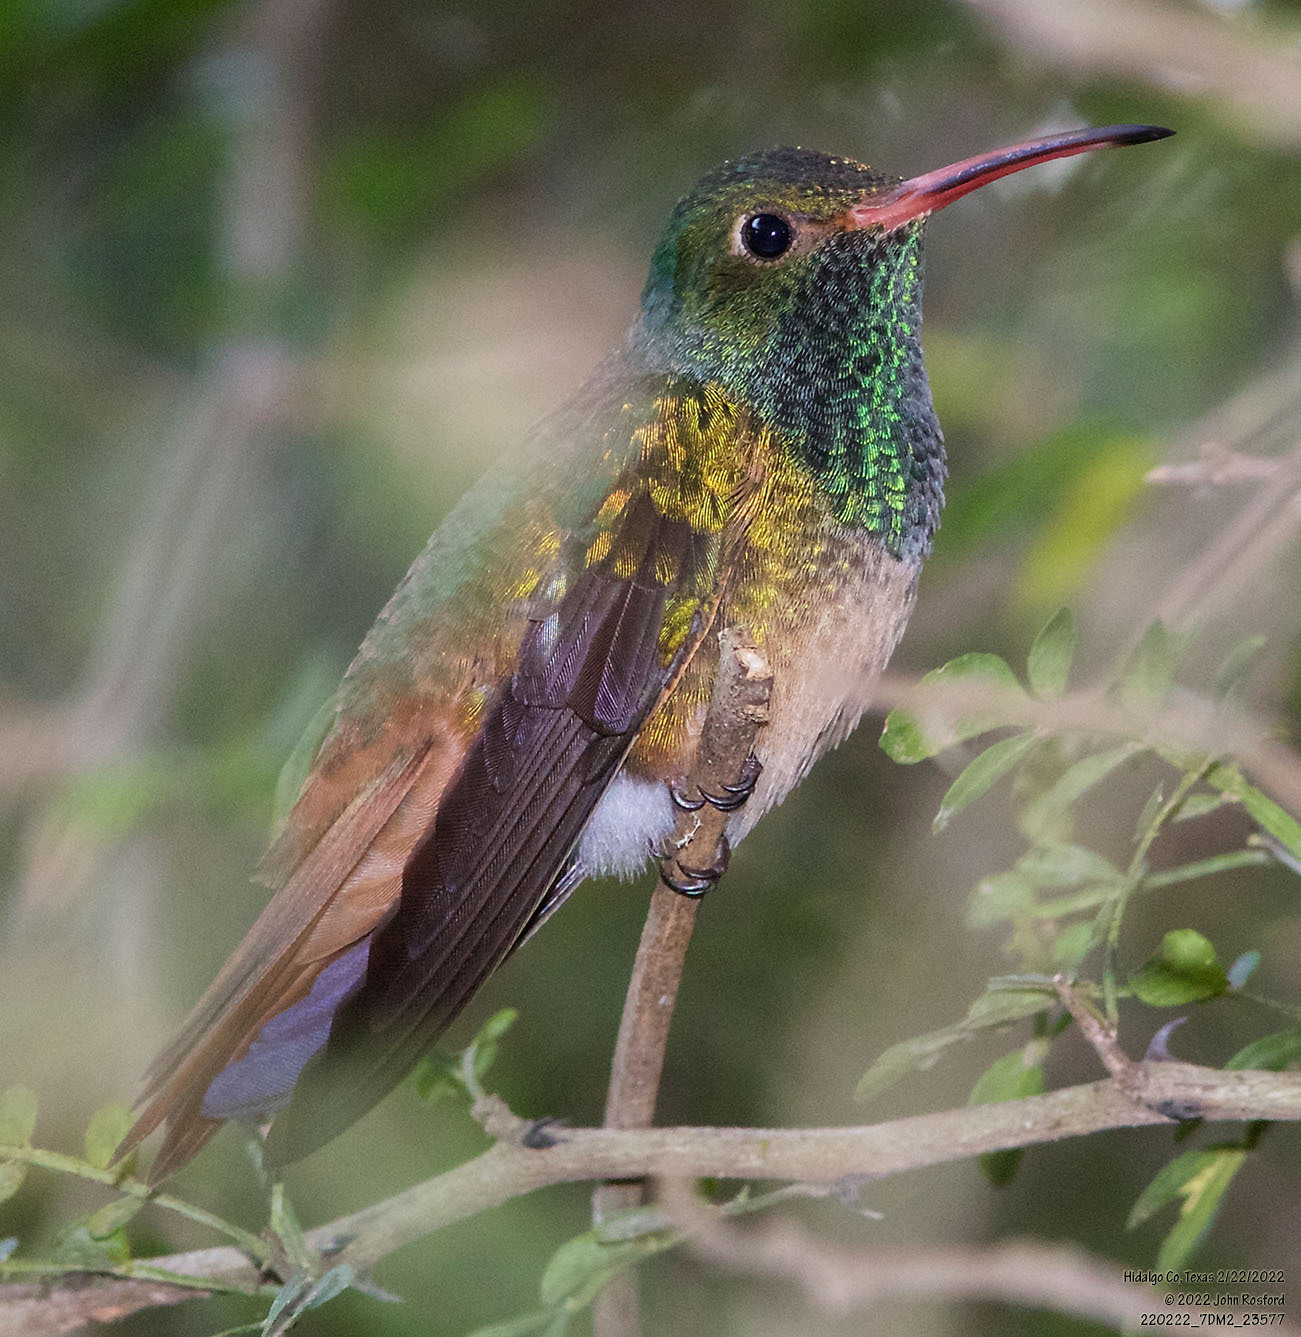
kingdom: Animalia
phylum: Chordata
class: Aves
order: Apodiformes
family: Trochilidae
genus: Amazilia
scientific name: Amazilia yucatanensis
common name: Buff-bellied hummingbird
